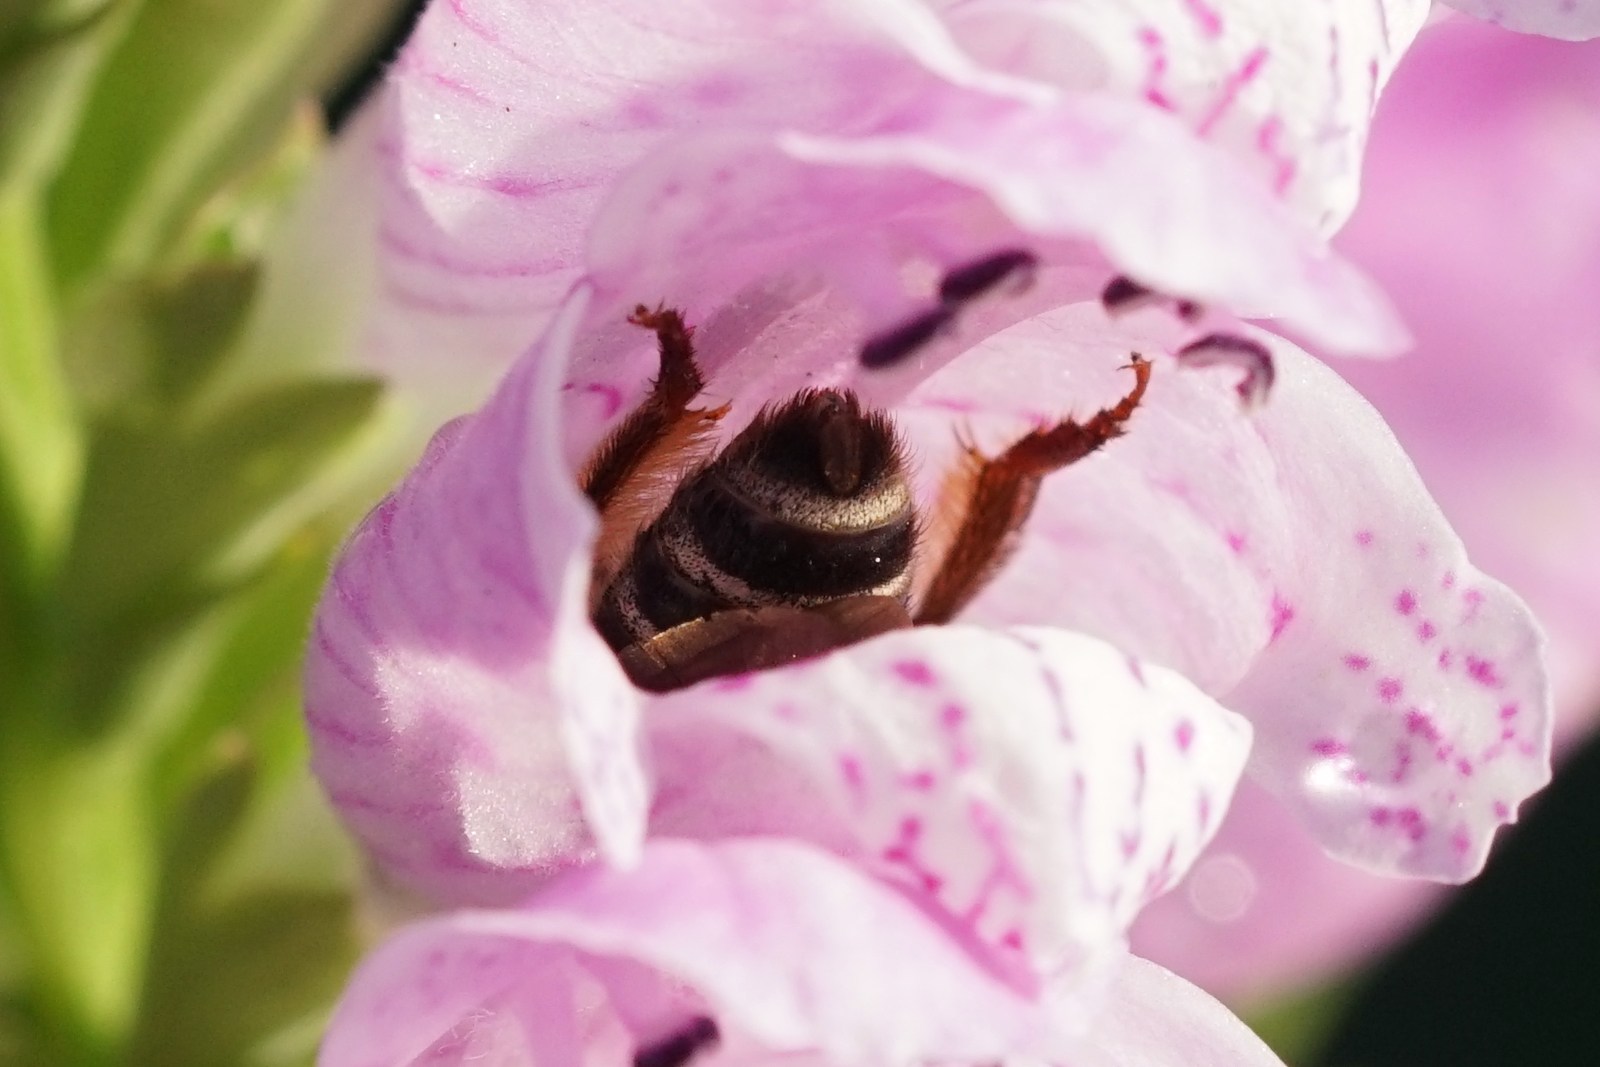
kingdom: Animalia
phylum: Arthropoda
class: Insecta
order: Hymenoptera
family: Halictidae
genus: Agapostemon
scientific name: Agapostemon virescens
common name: Bicolored striped sweat bee
